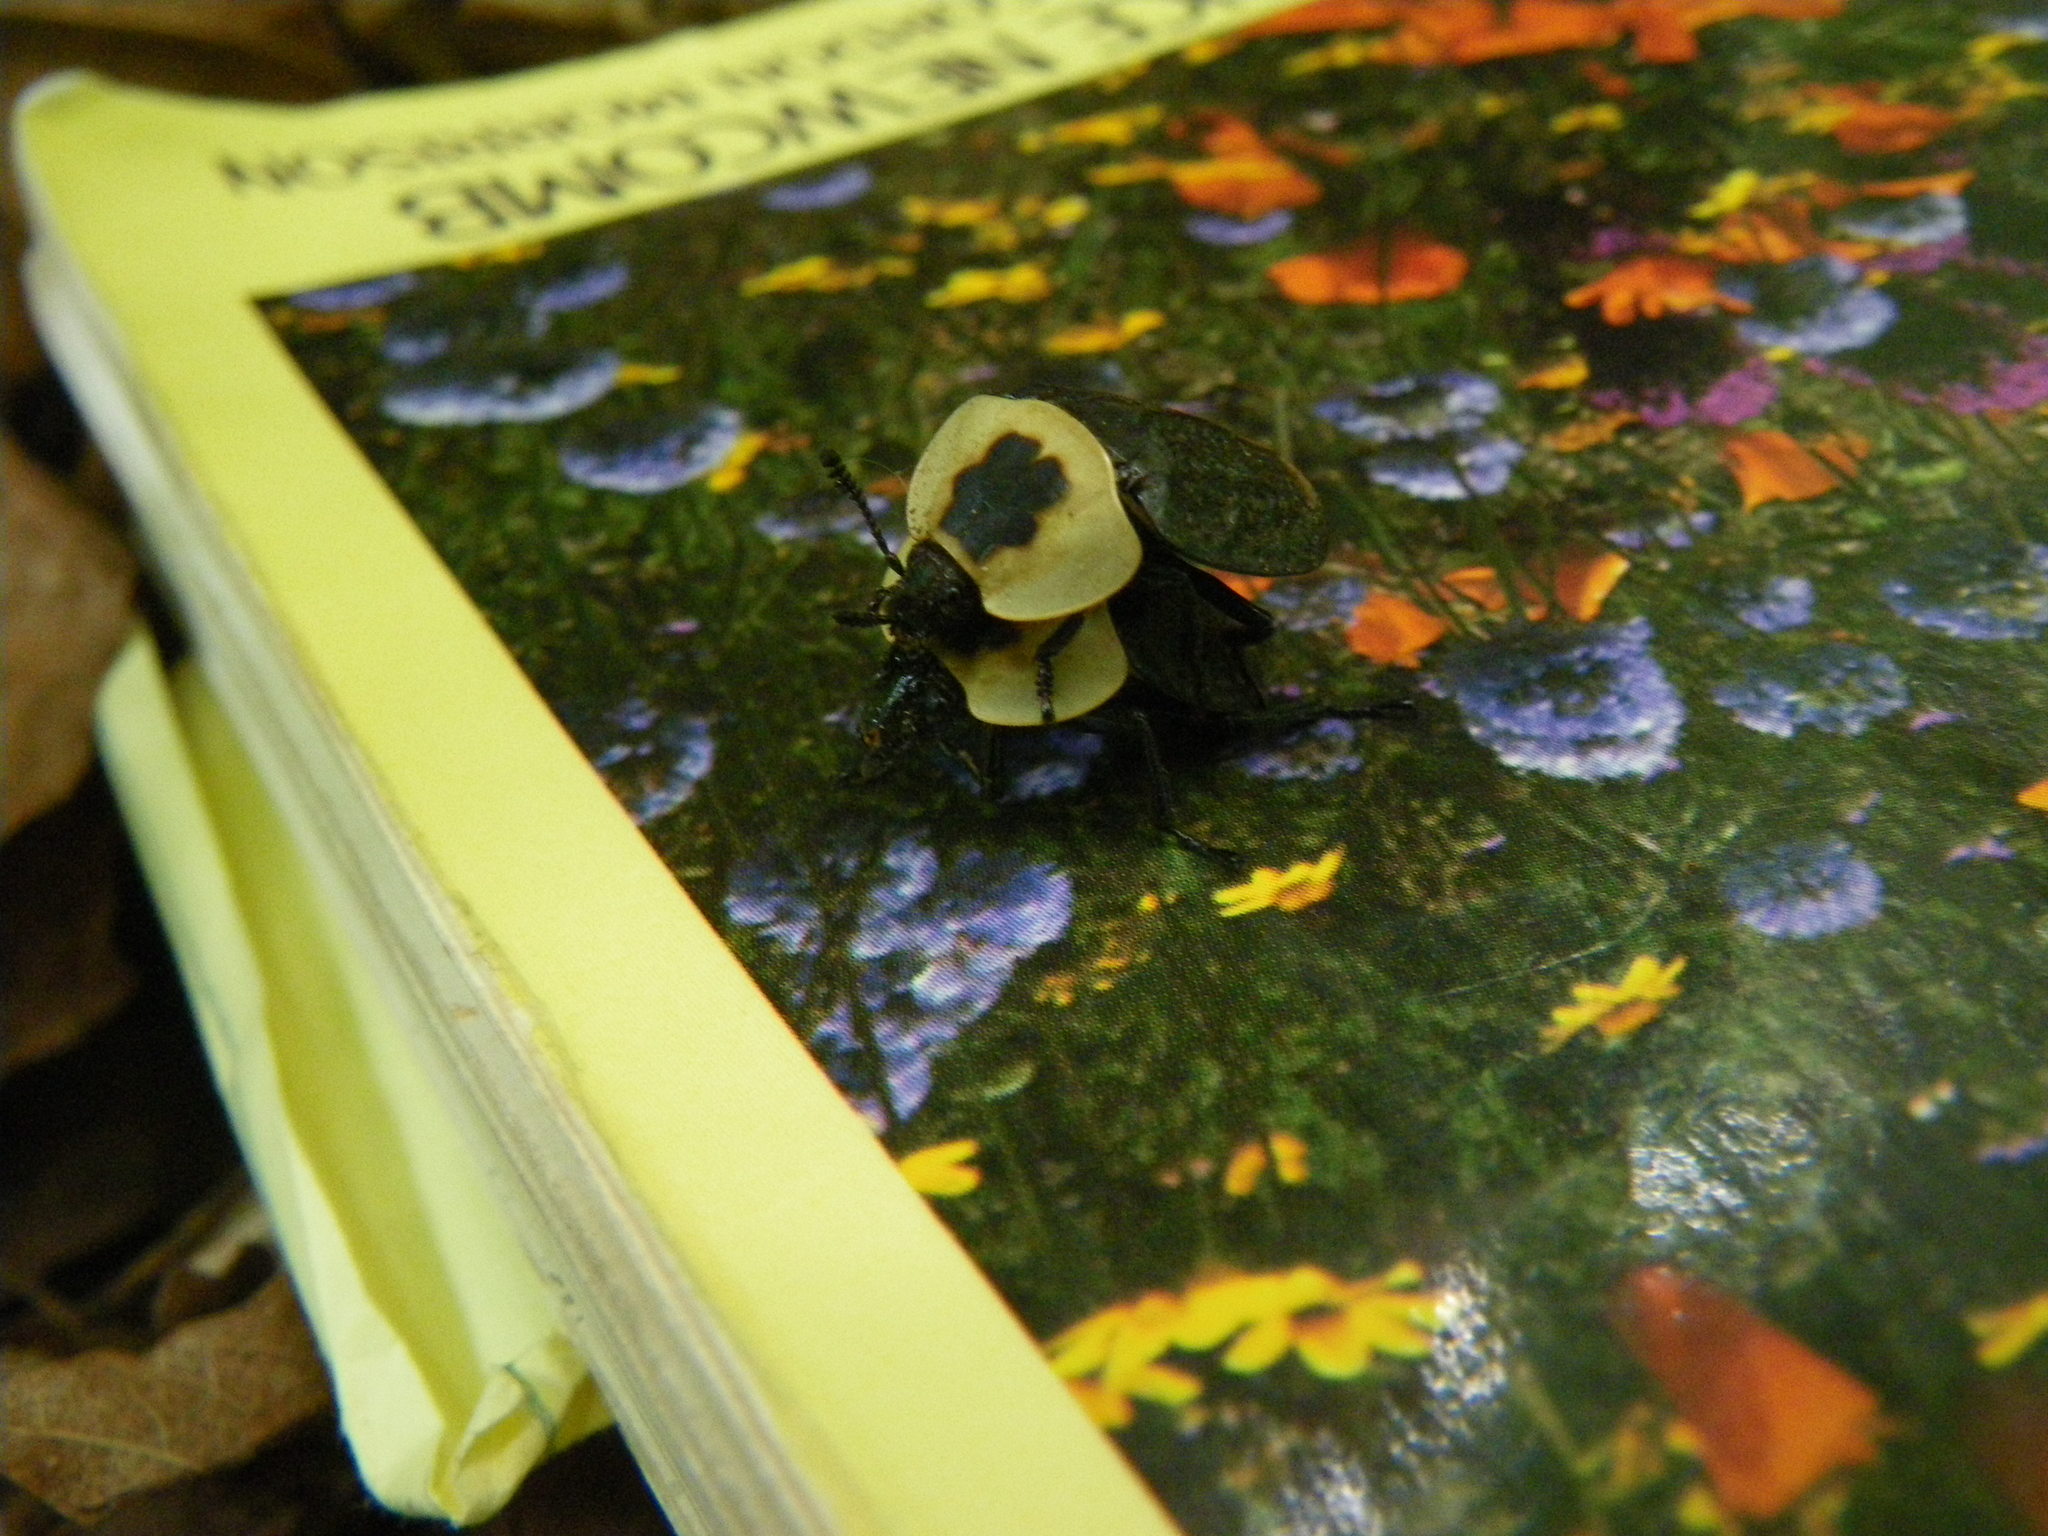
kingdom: Animalia
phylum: Arthropoda
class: Insecta
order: Coleoptera
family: Staphylinidae
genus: Necrophila
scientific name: Necrophila americana
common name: American carrion beetle
